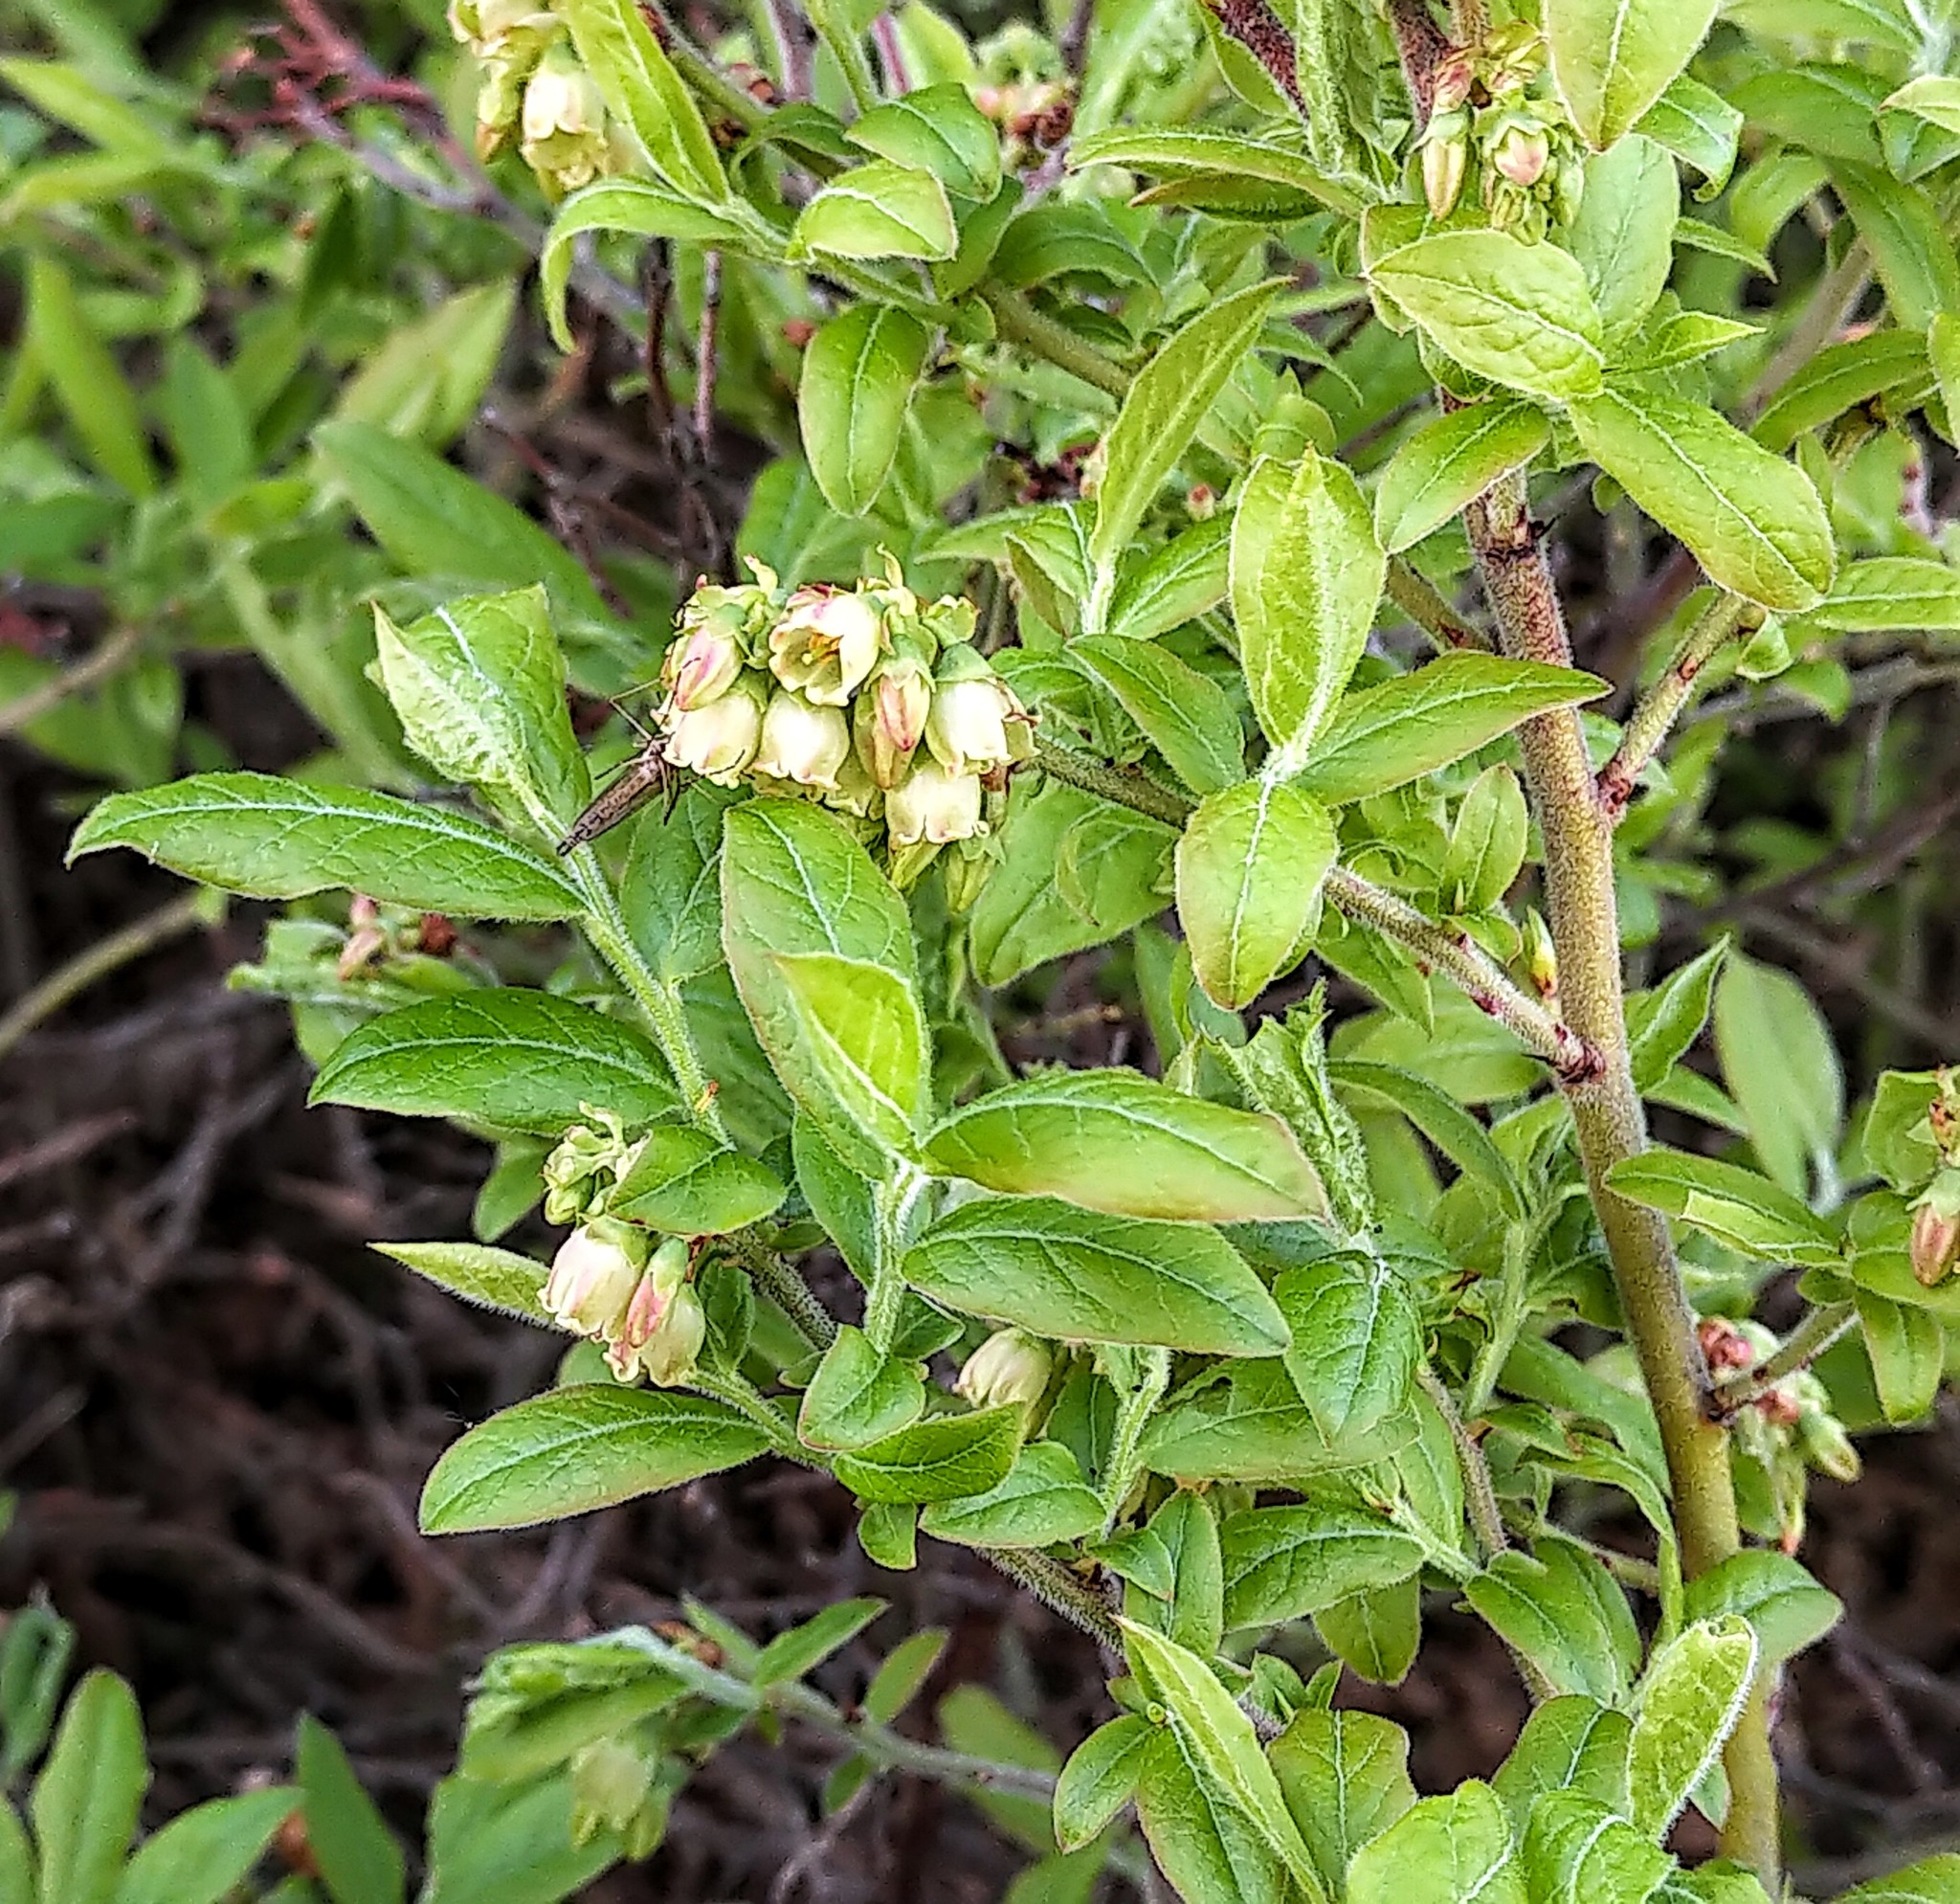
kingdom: Plantae
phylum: Tracheophyta
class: Magnoliopsida
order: Ericales
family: Ericaceae
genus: Vaccinium
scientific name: Vaccinium myrtilloides
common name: Canada blueberry
